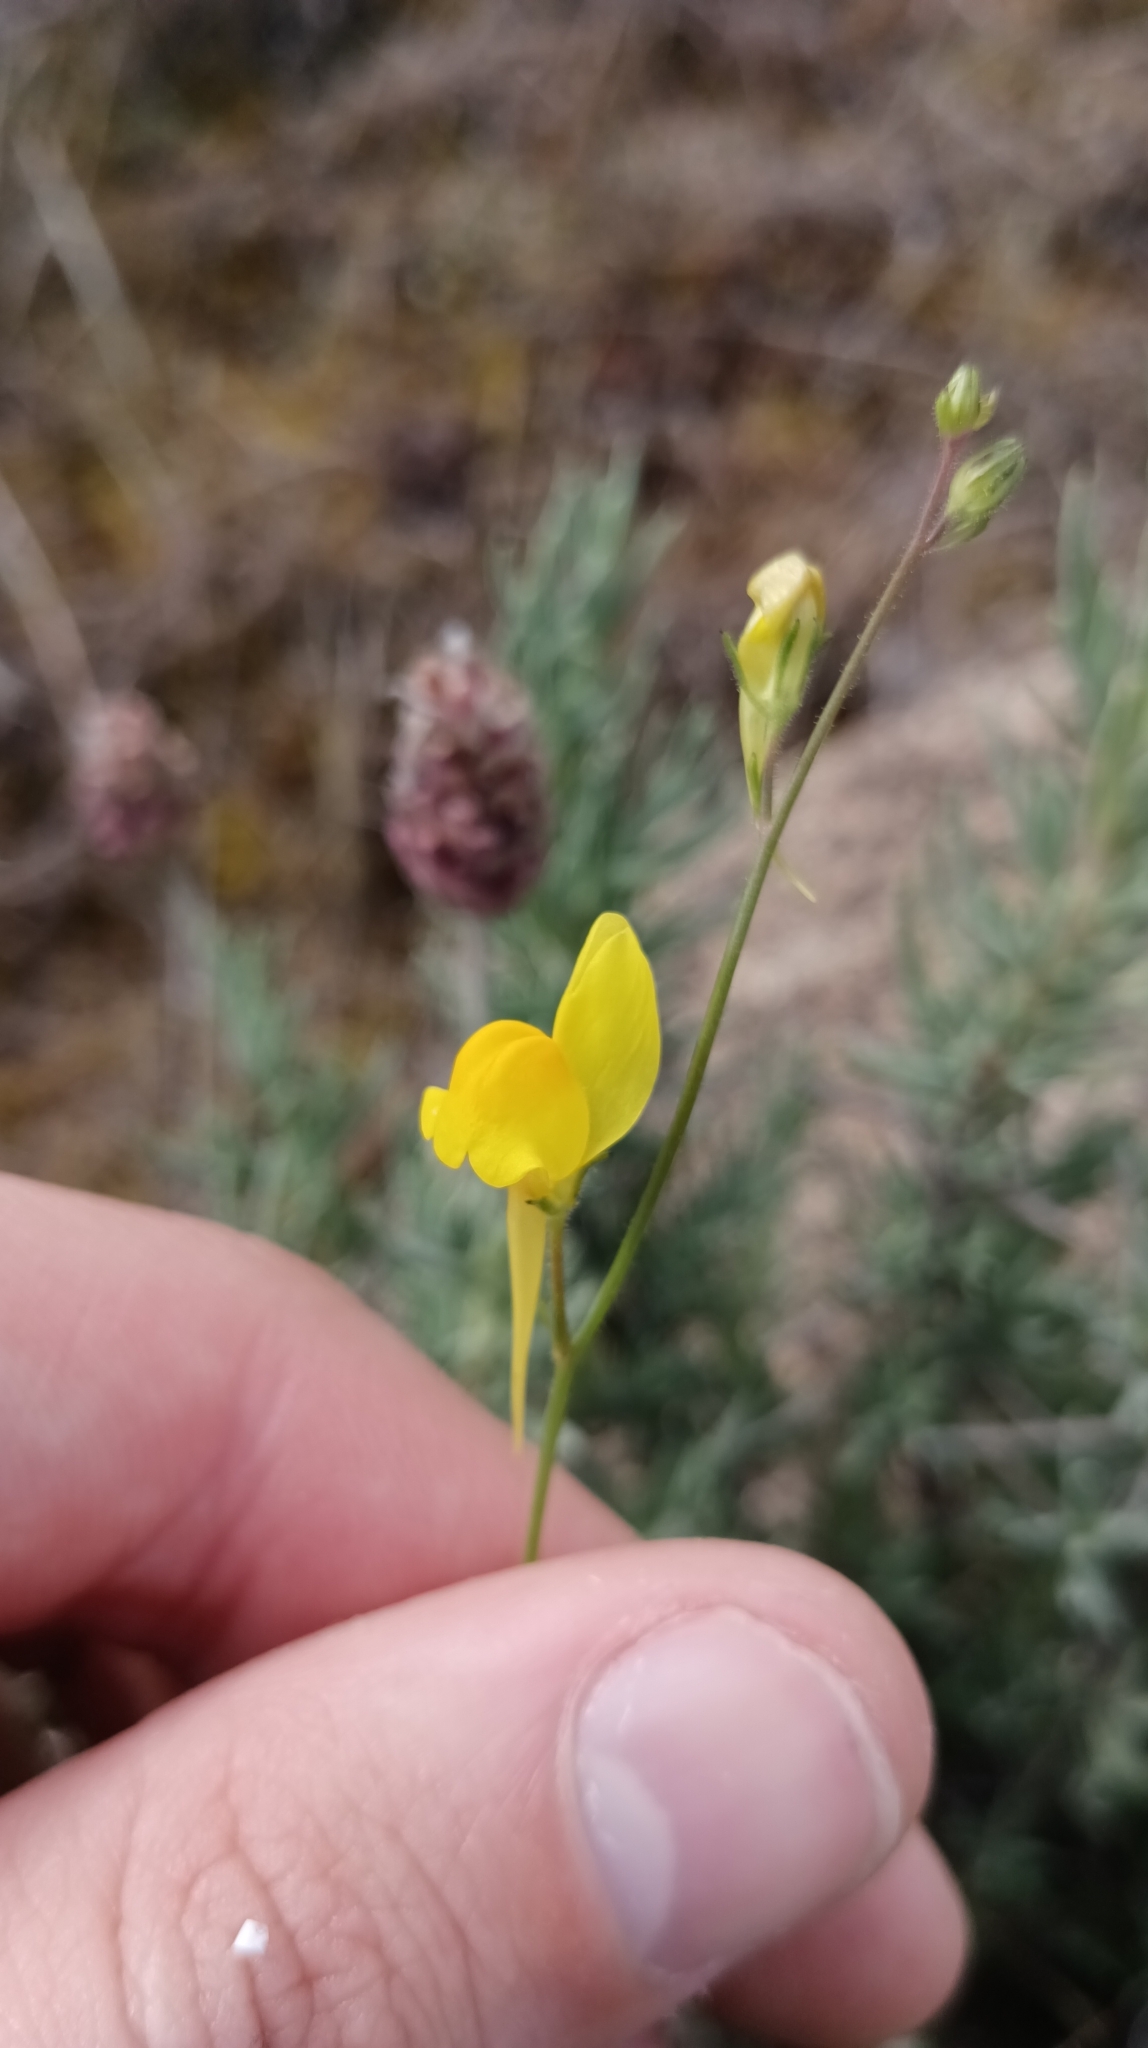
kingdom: Plantae
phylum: Tracheophyta
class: Magnoliopsida
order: Lamiales
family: Plantaginaceae
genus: Linaria
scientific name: Linaria spartea
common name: Ballast toadflax
